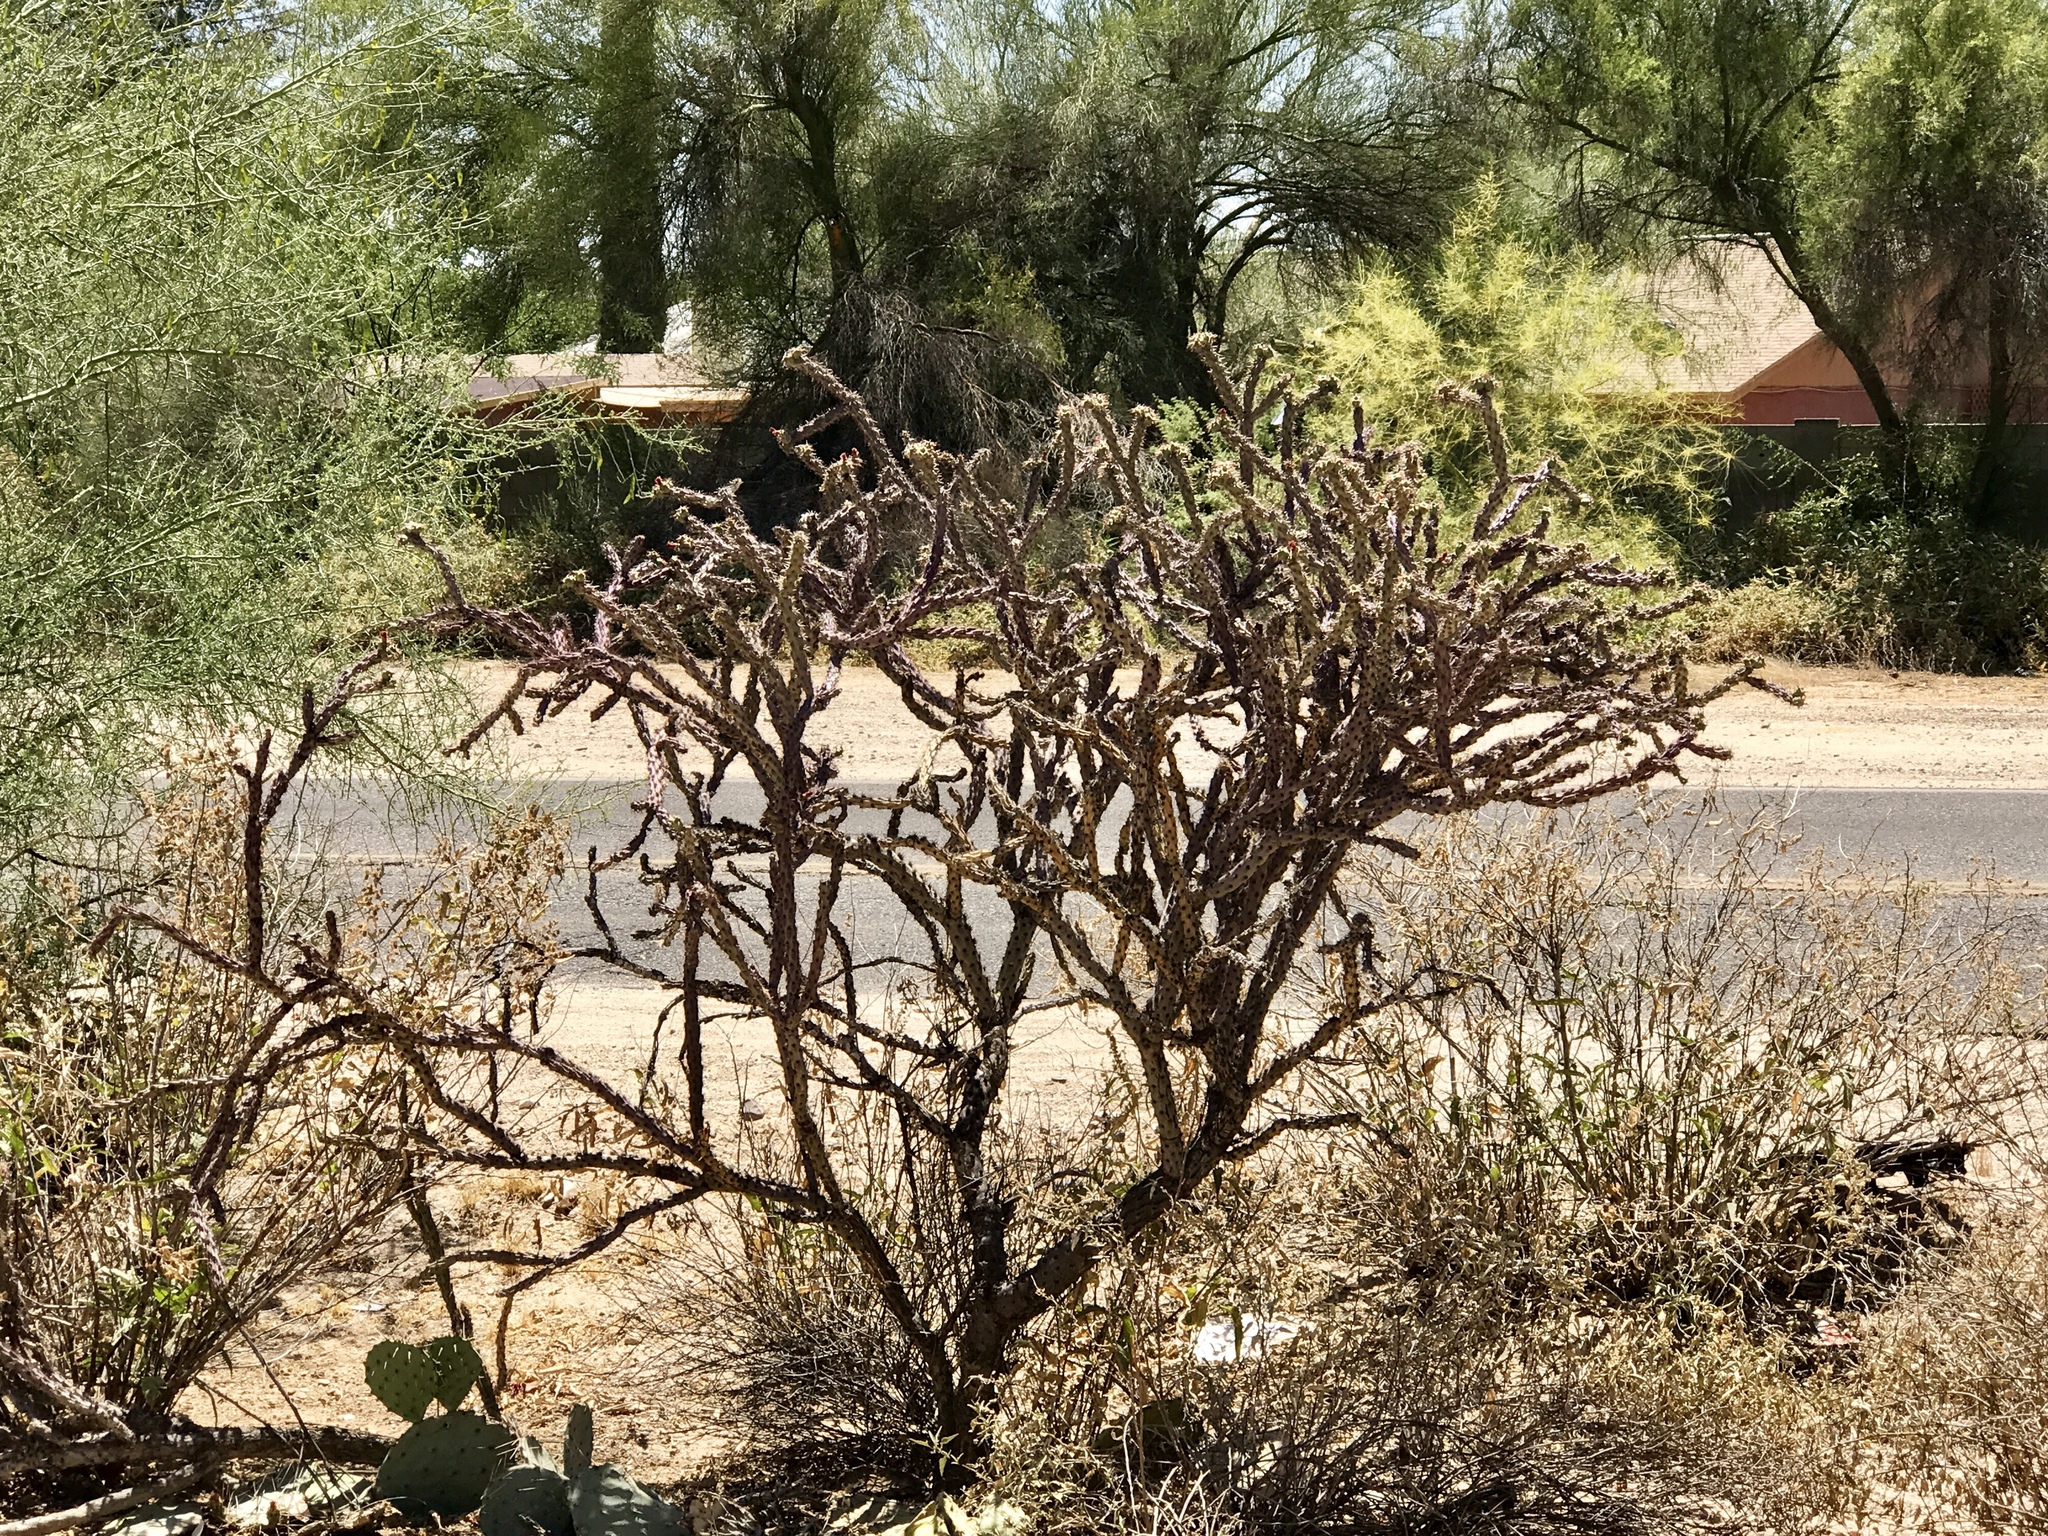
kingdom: Plantae
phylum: Tracheophyta
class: Magnoliopsida
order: Caryophyllales
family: Cactaceae
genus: Cylindropuntia
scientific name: Cylindropuntia thurberi
